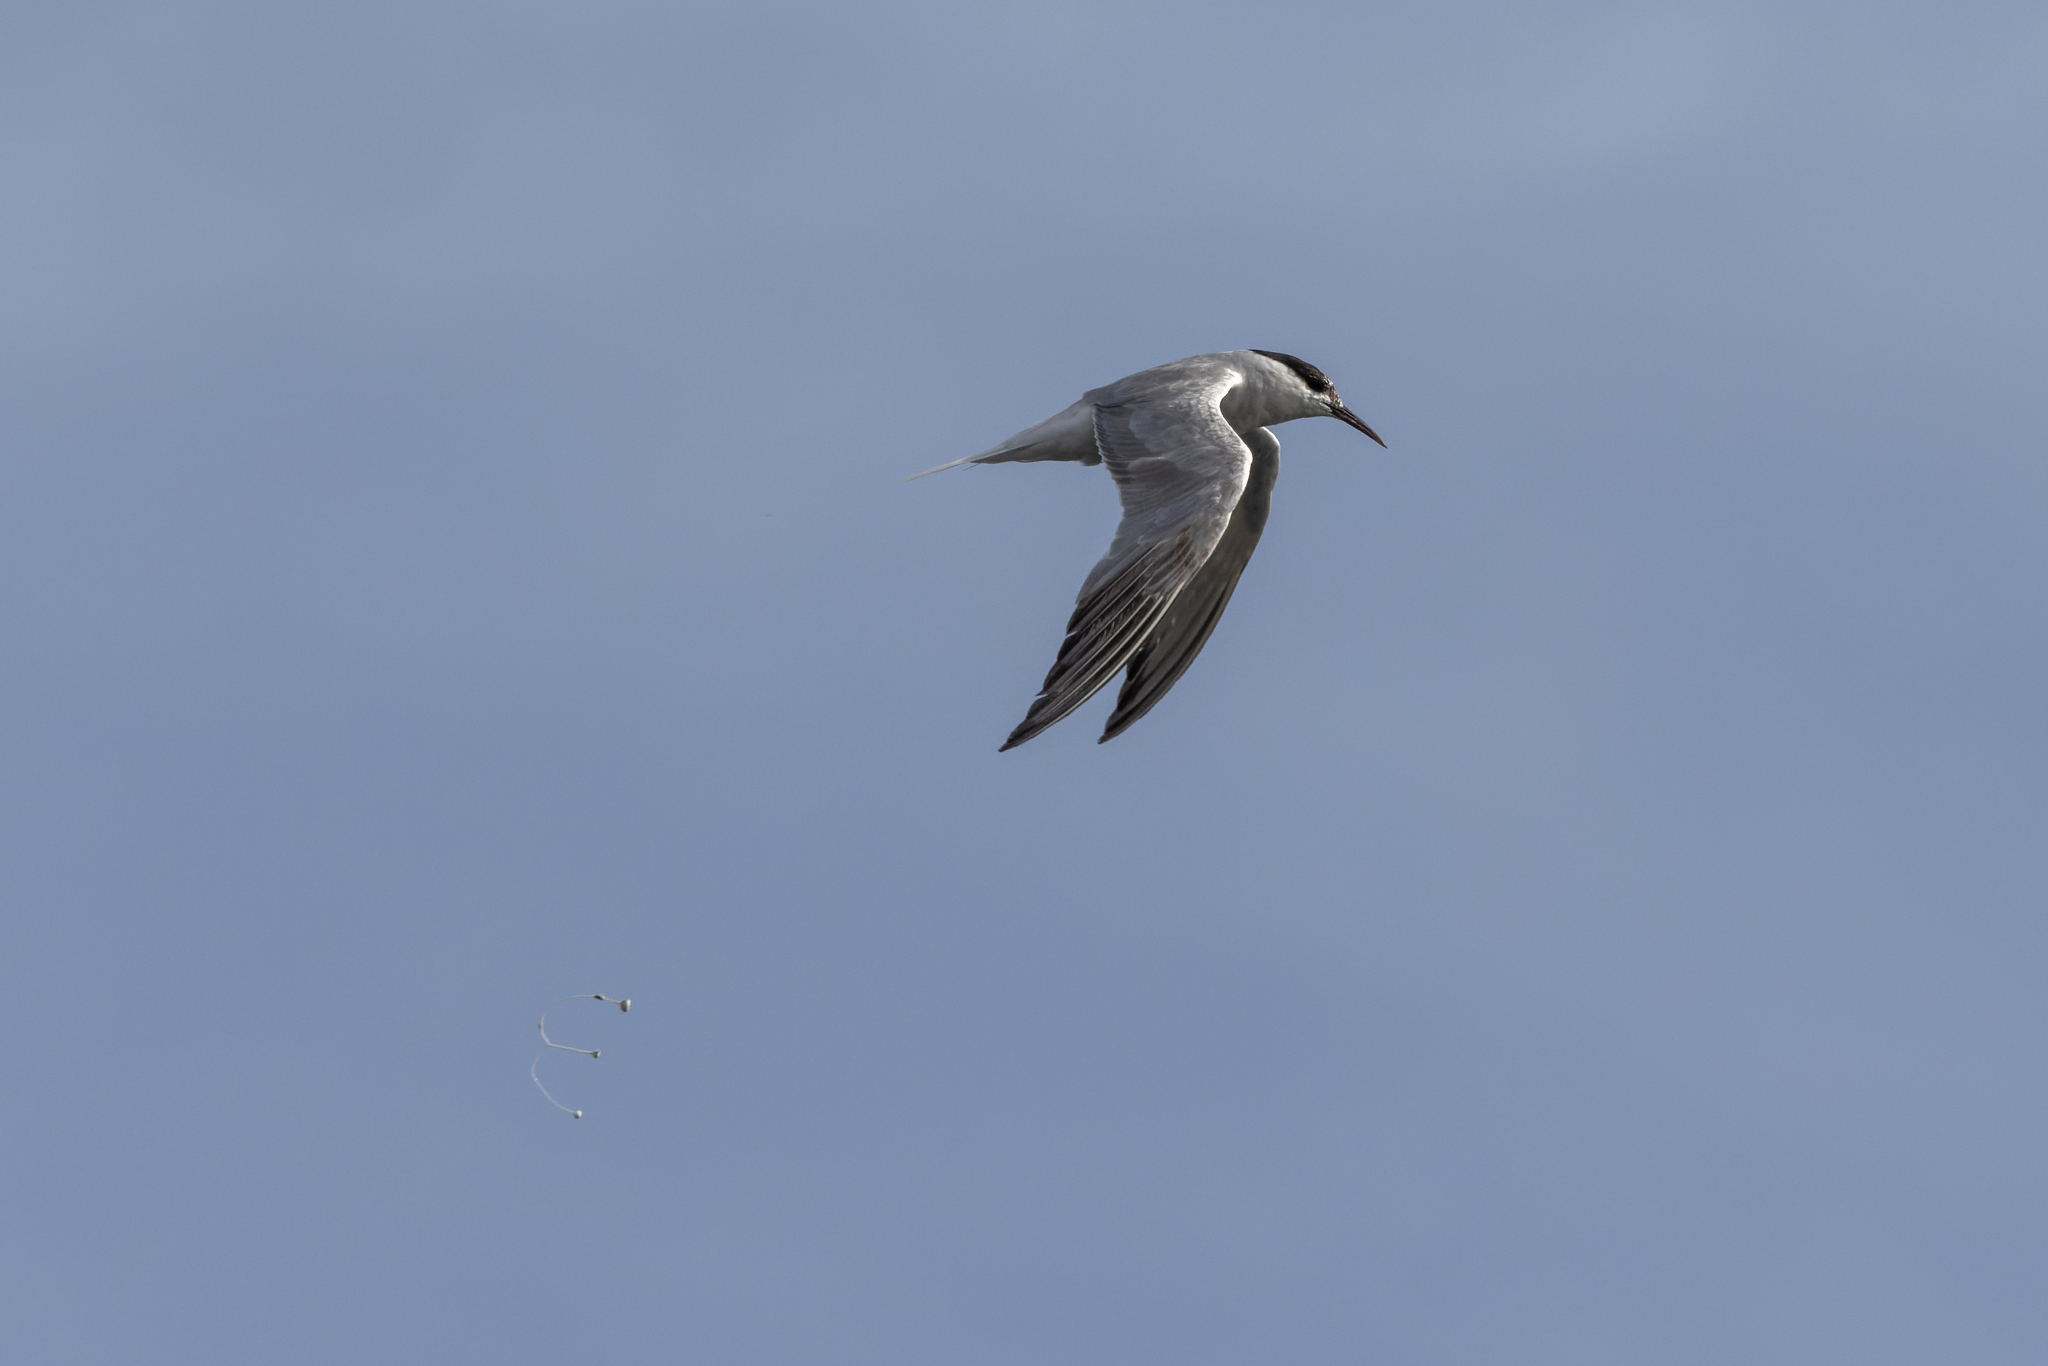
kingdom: Animalia
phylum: Chordata
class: Aves
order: Charadriiformes
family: Laridae
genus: Sterna
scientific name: Sterna hirundo
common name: Common tern
